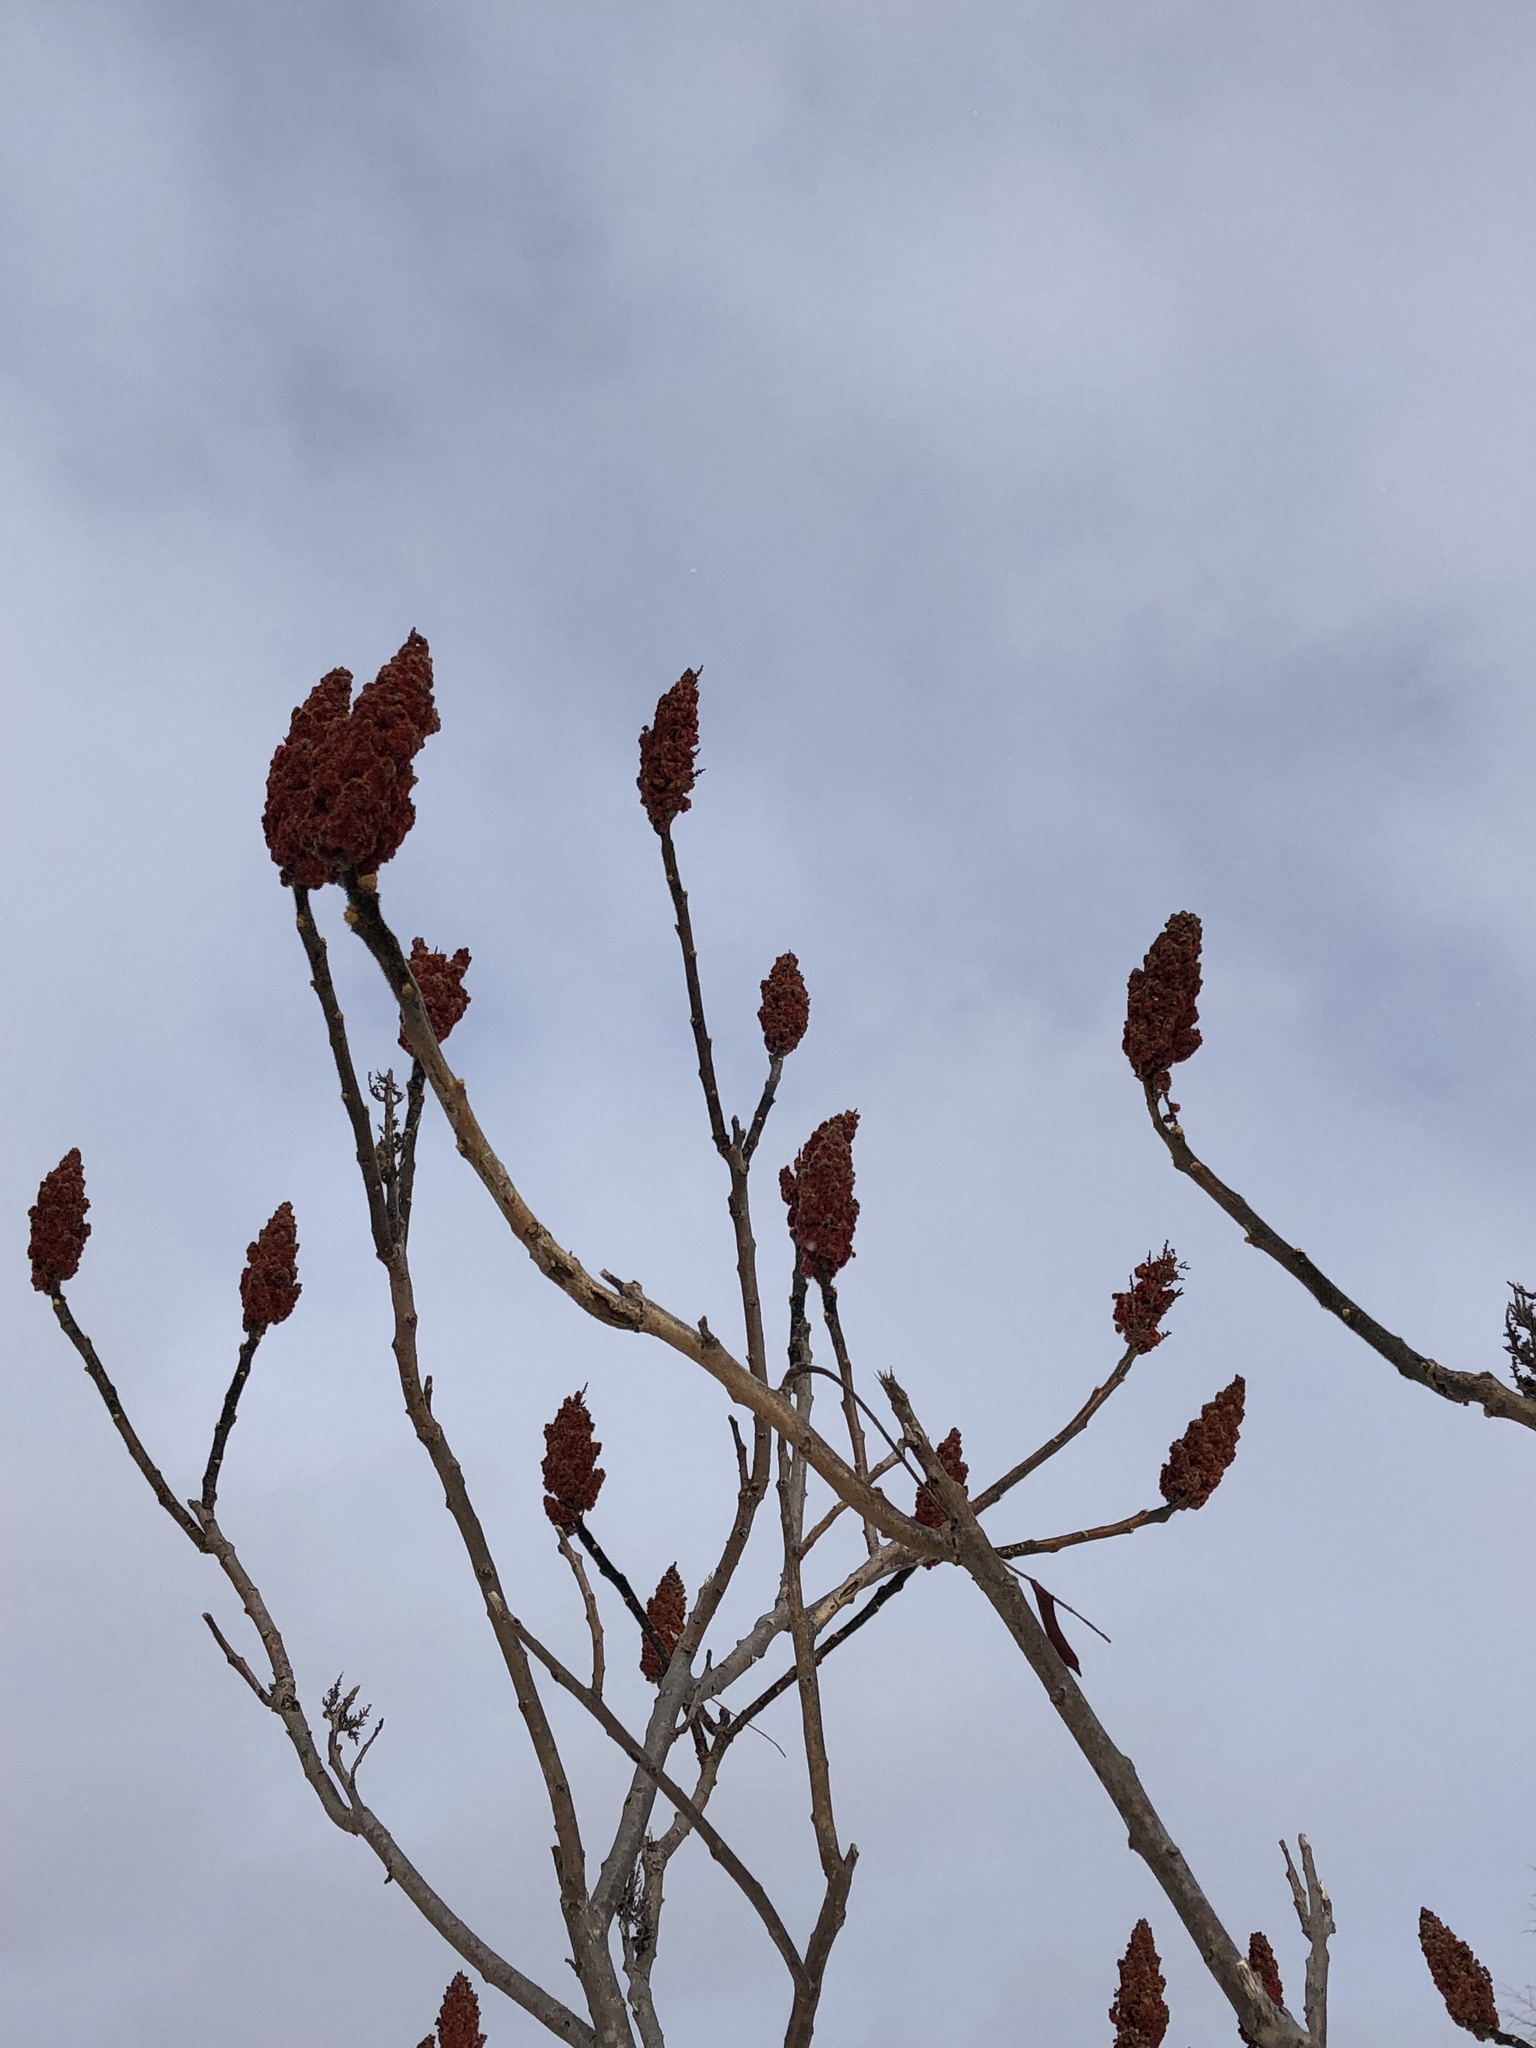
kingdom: Plantae
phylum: Tracheophyta
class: Magnoliopsida
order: Sapindales
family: Anacardiaceae
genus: Rhus
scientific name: Rhus typhina
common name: Staghorn sumac
